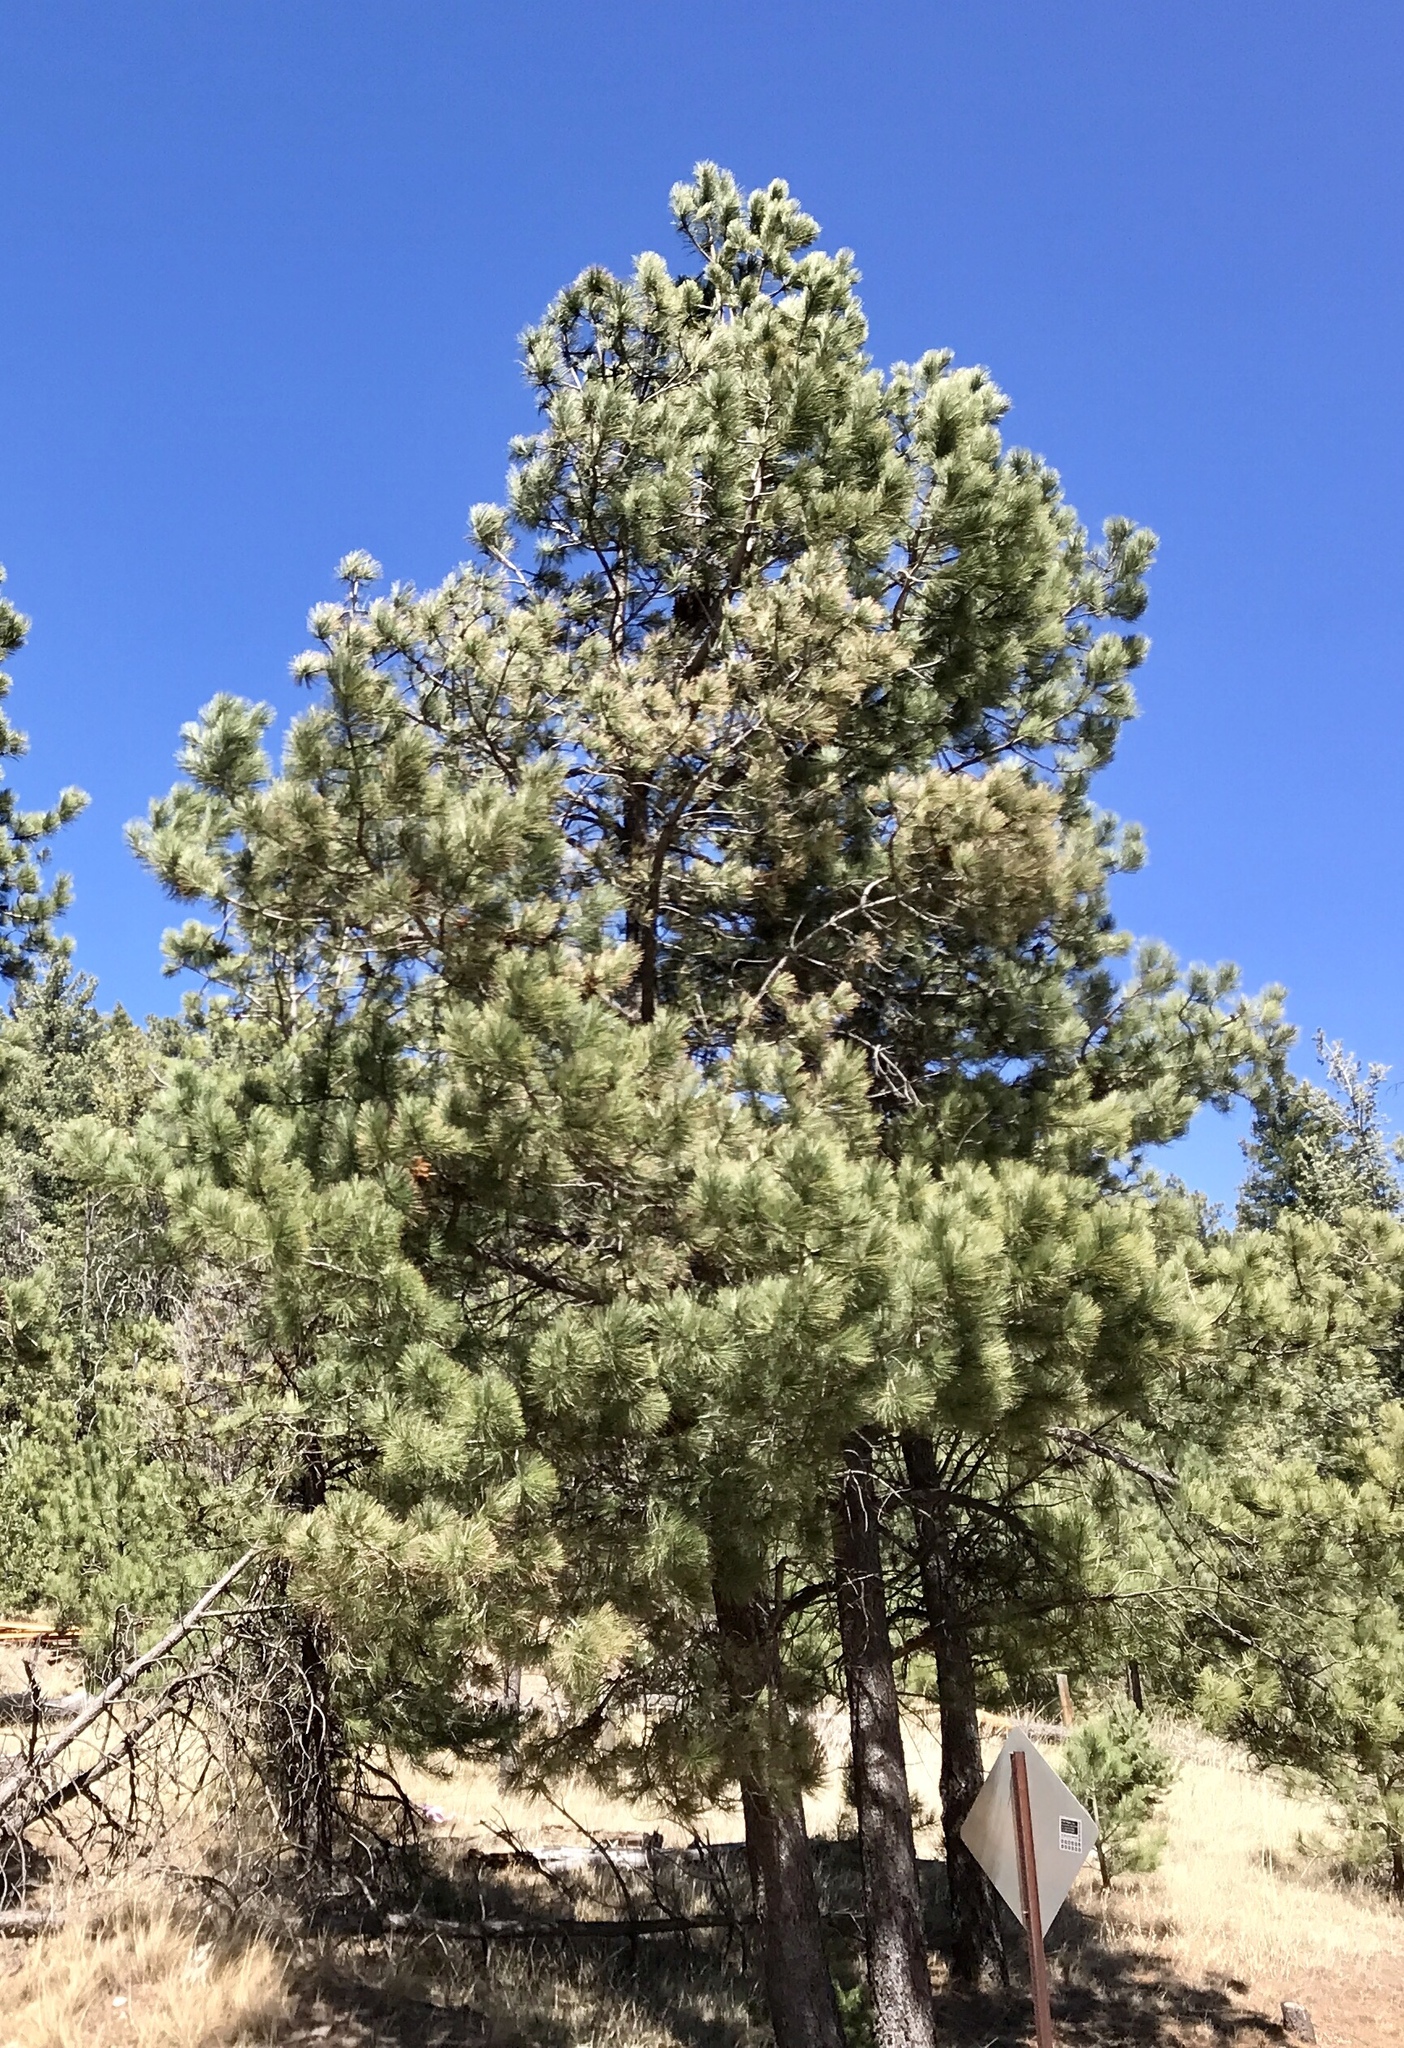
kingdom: Plantae
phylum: Tracheophyta
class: Pinopsida
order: Pinales
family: Pinaceae
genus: Pinus
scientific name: Pinus ponderosa
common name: Western yellow-pine
